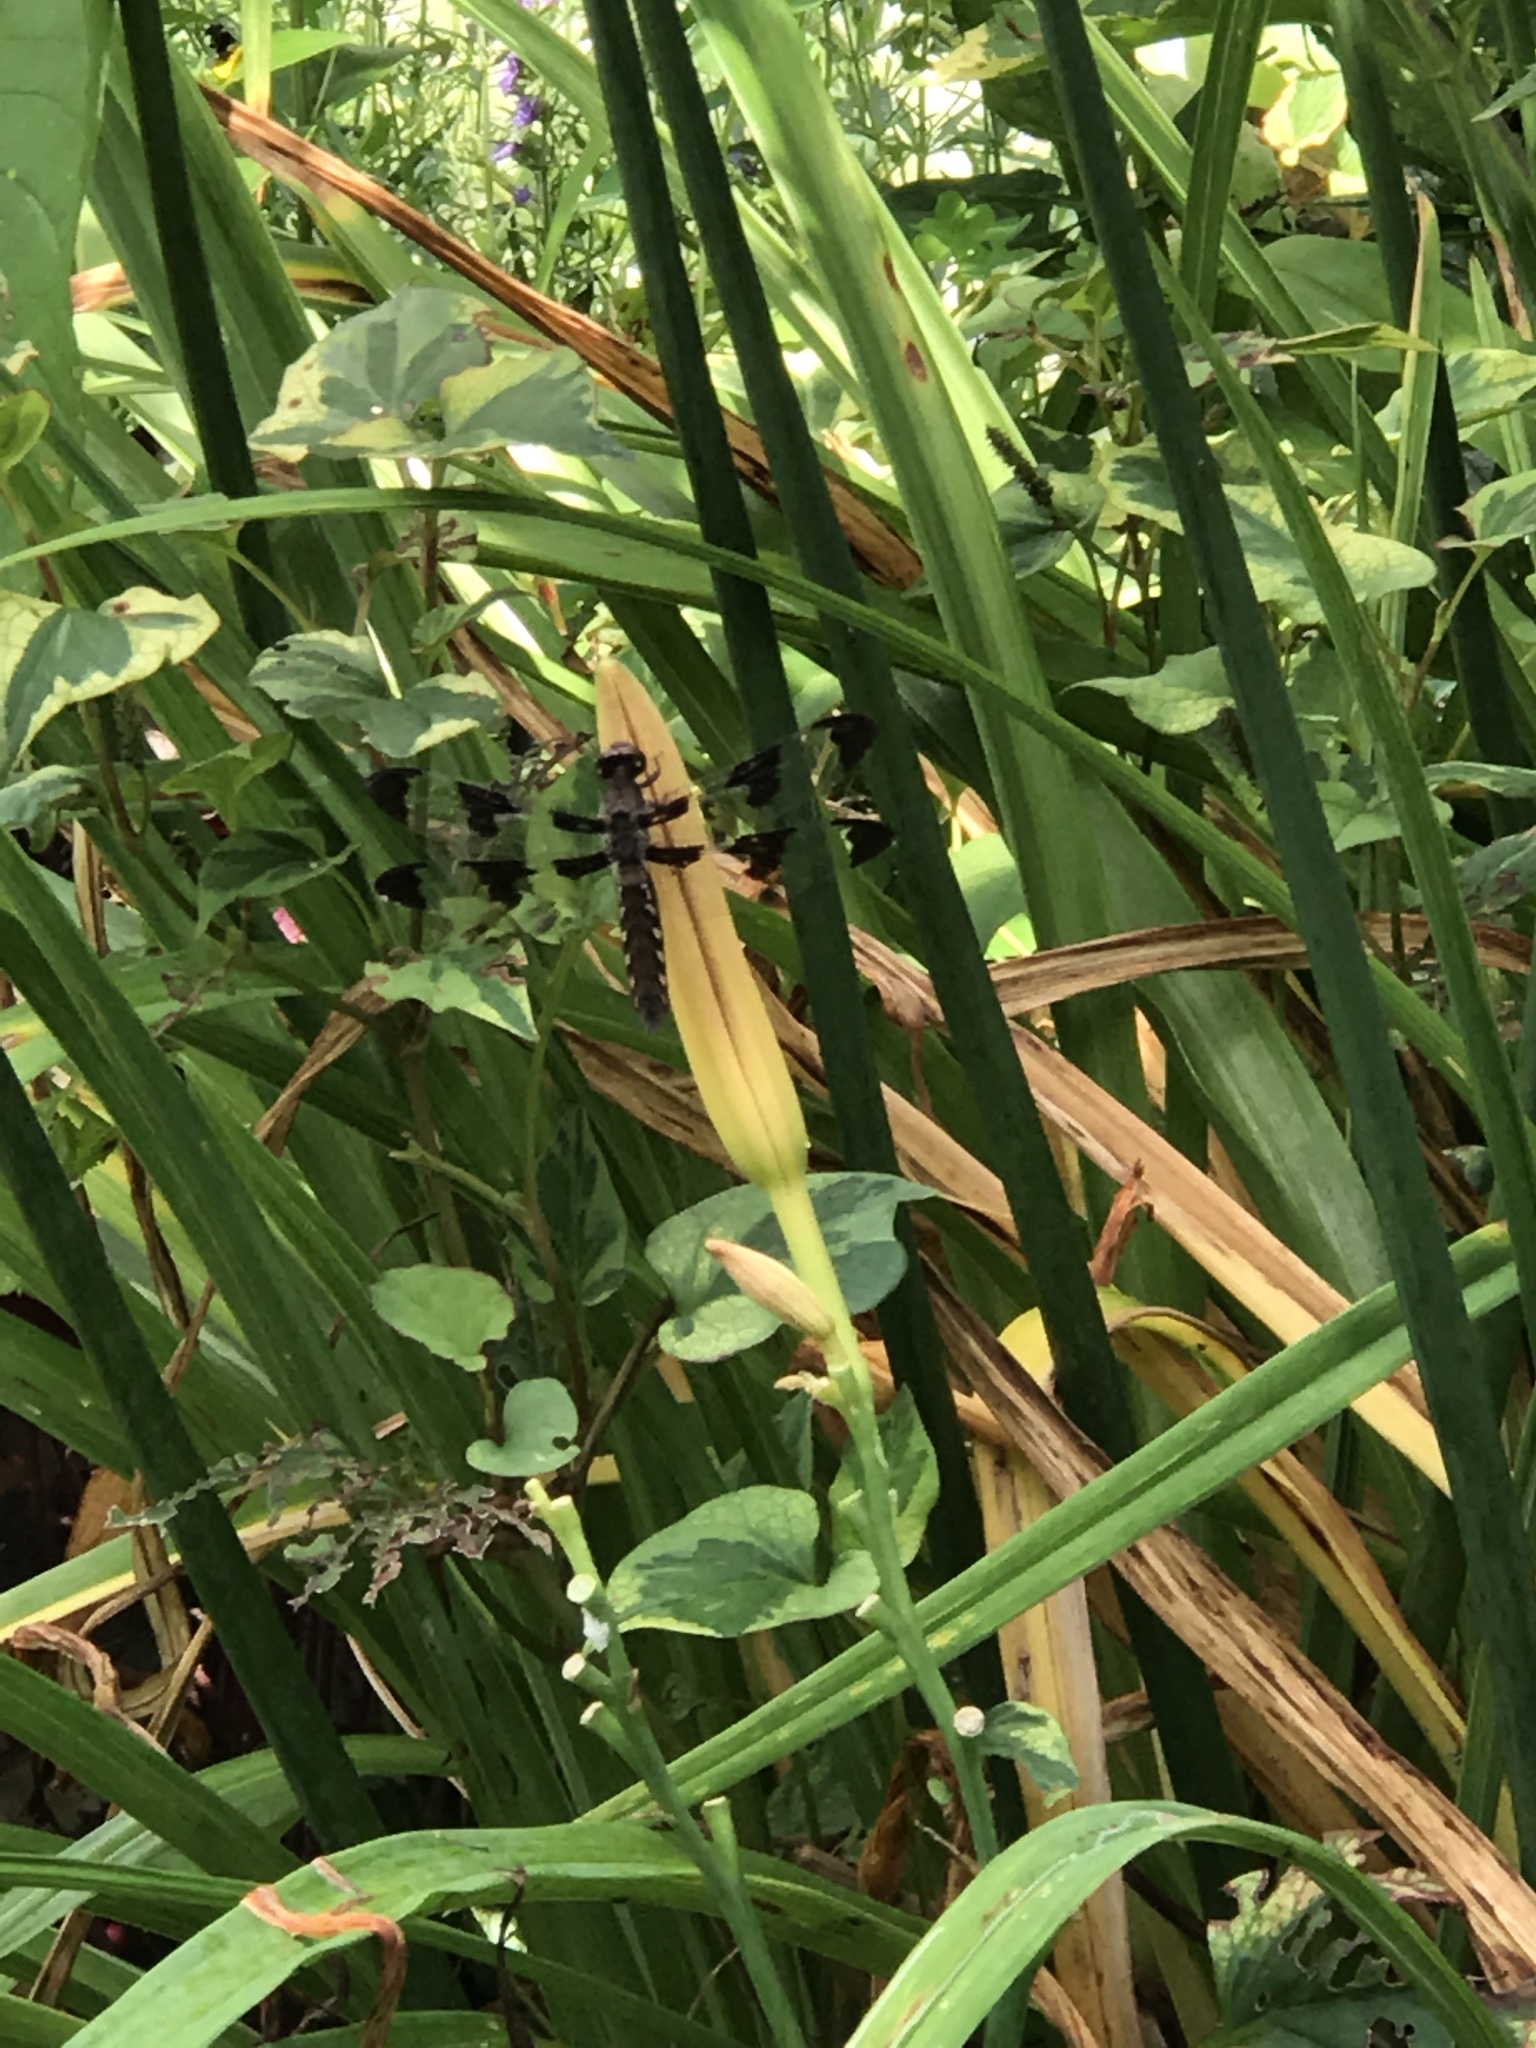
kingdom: Animalia
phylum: Arthropoda
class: Insecta
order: Odonata
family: Libellulidae
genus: Plathemis
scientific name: Plathemis lydia
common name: Common whitetail
